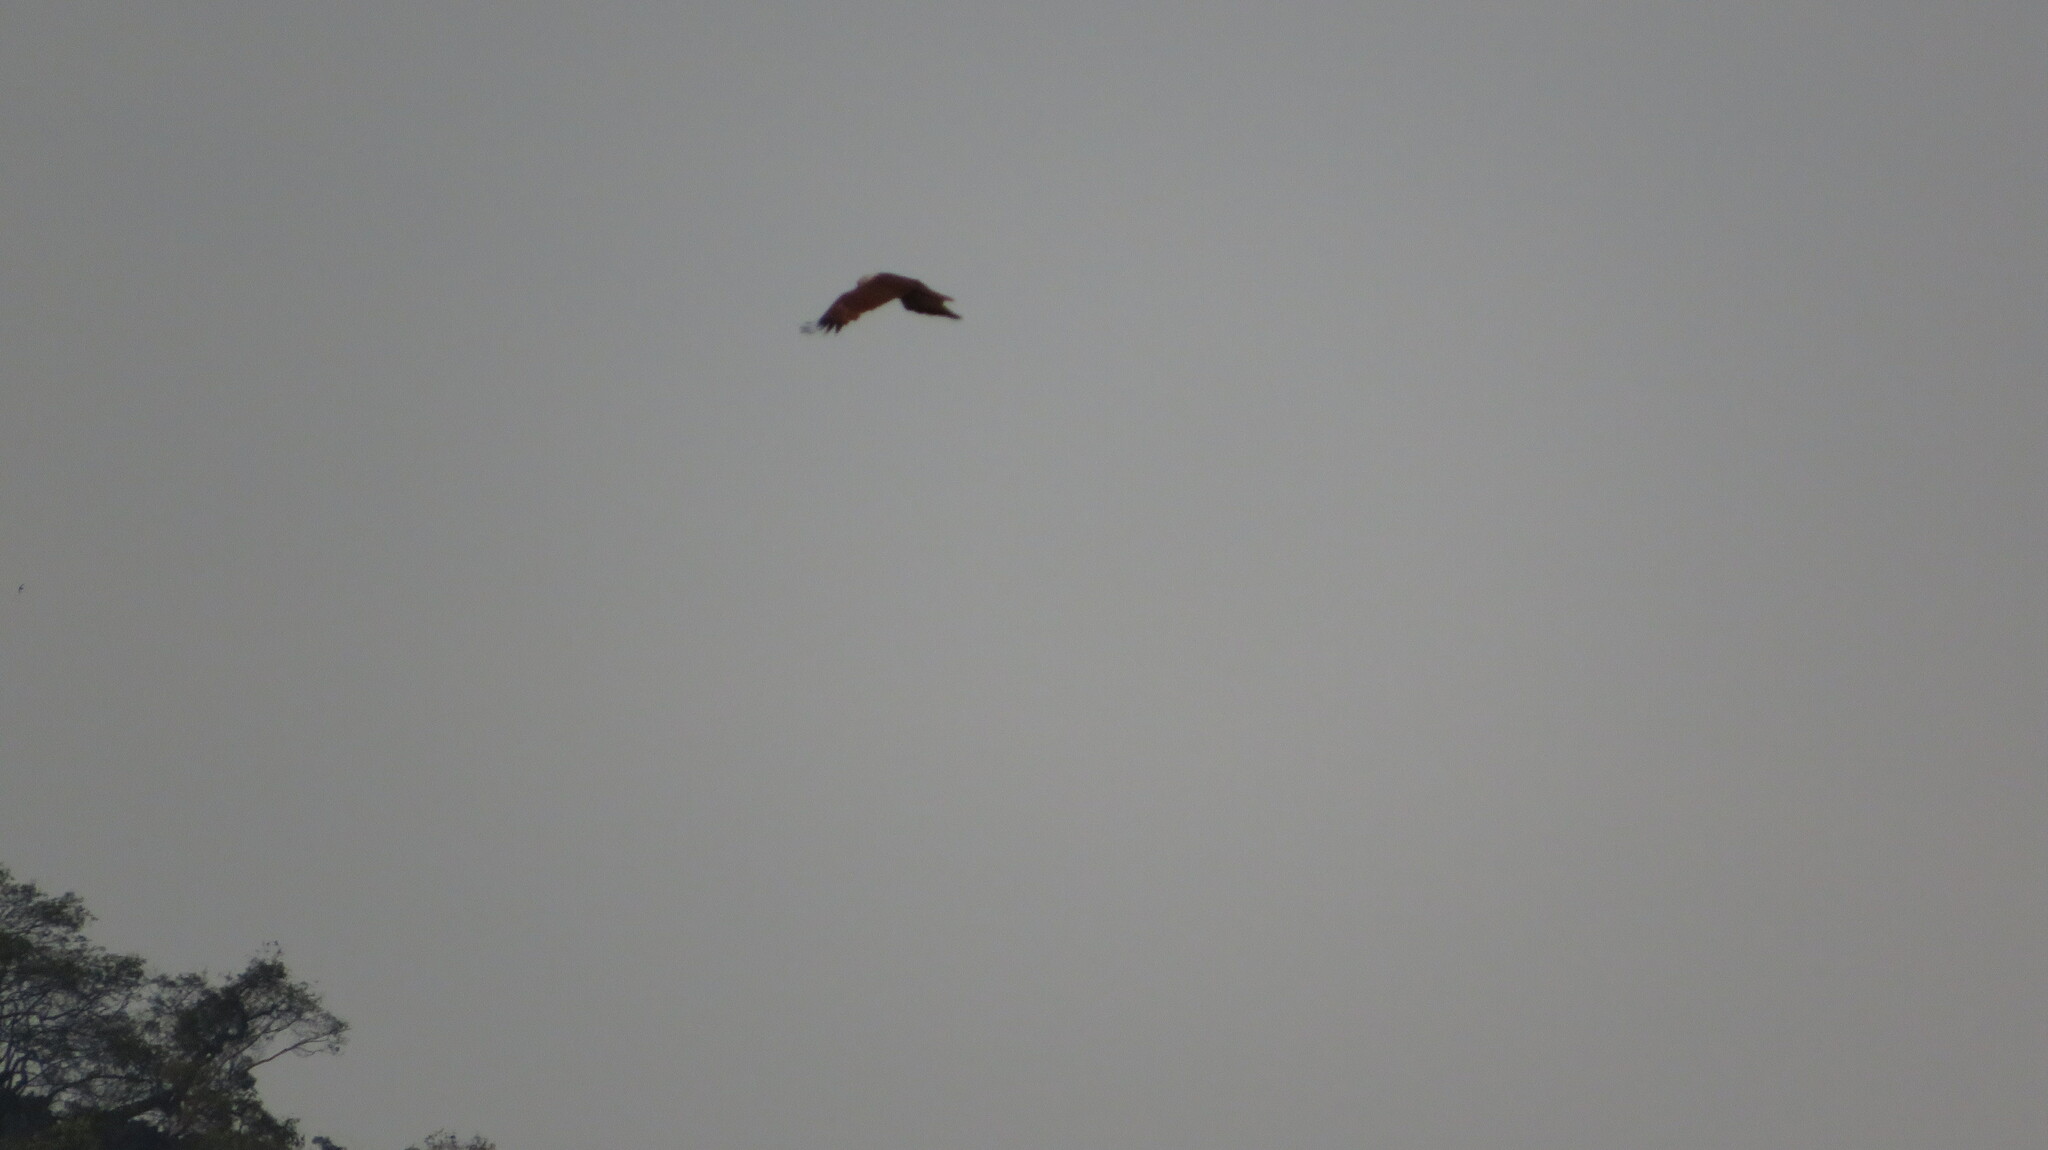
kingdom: Animalia
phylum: Chordata
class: Aves
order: Accipitriformes
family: Accipitridae
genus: Haliastur
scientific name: Haliastur indus
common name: Brahminy kite
